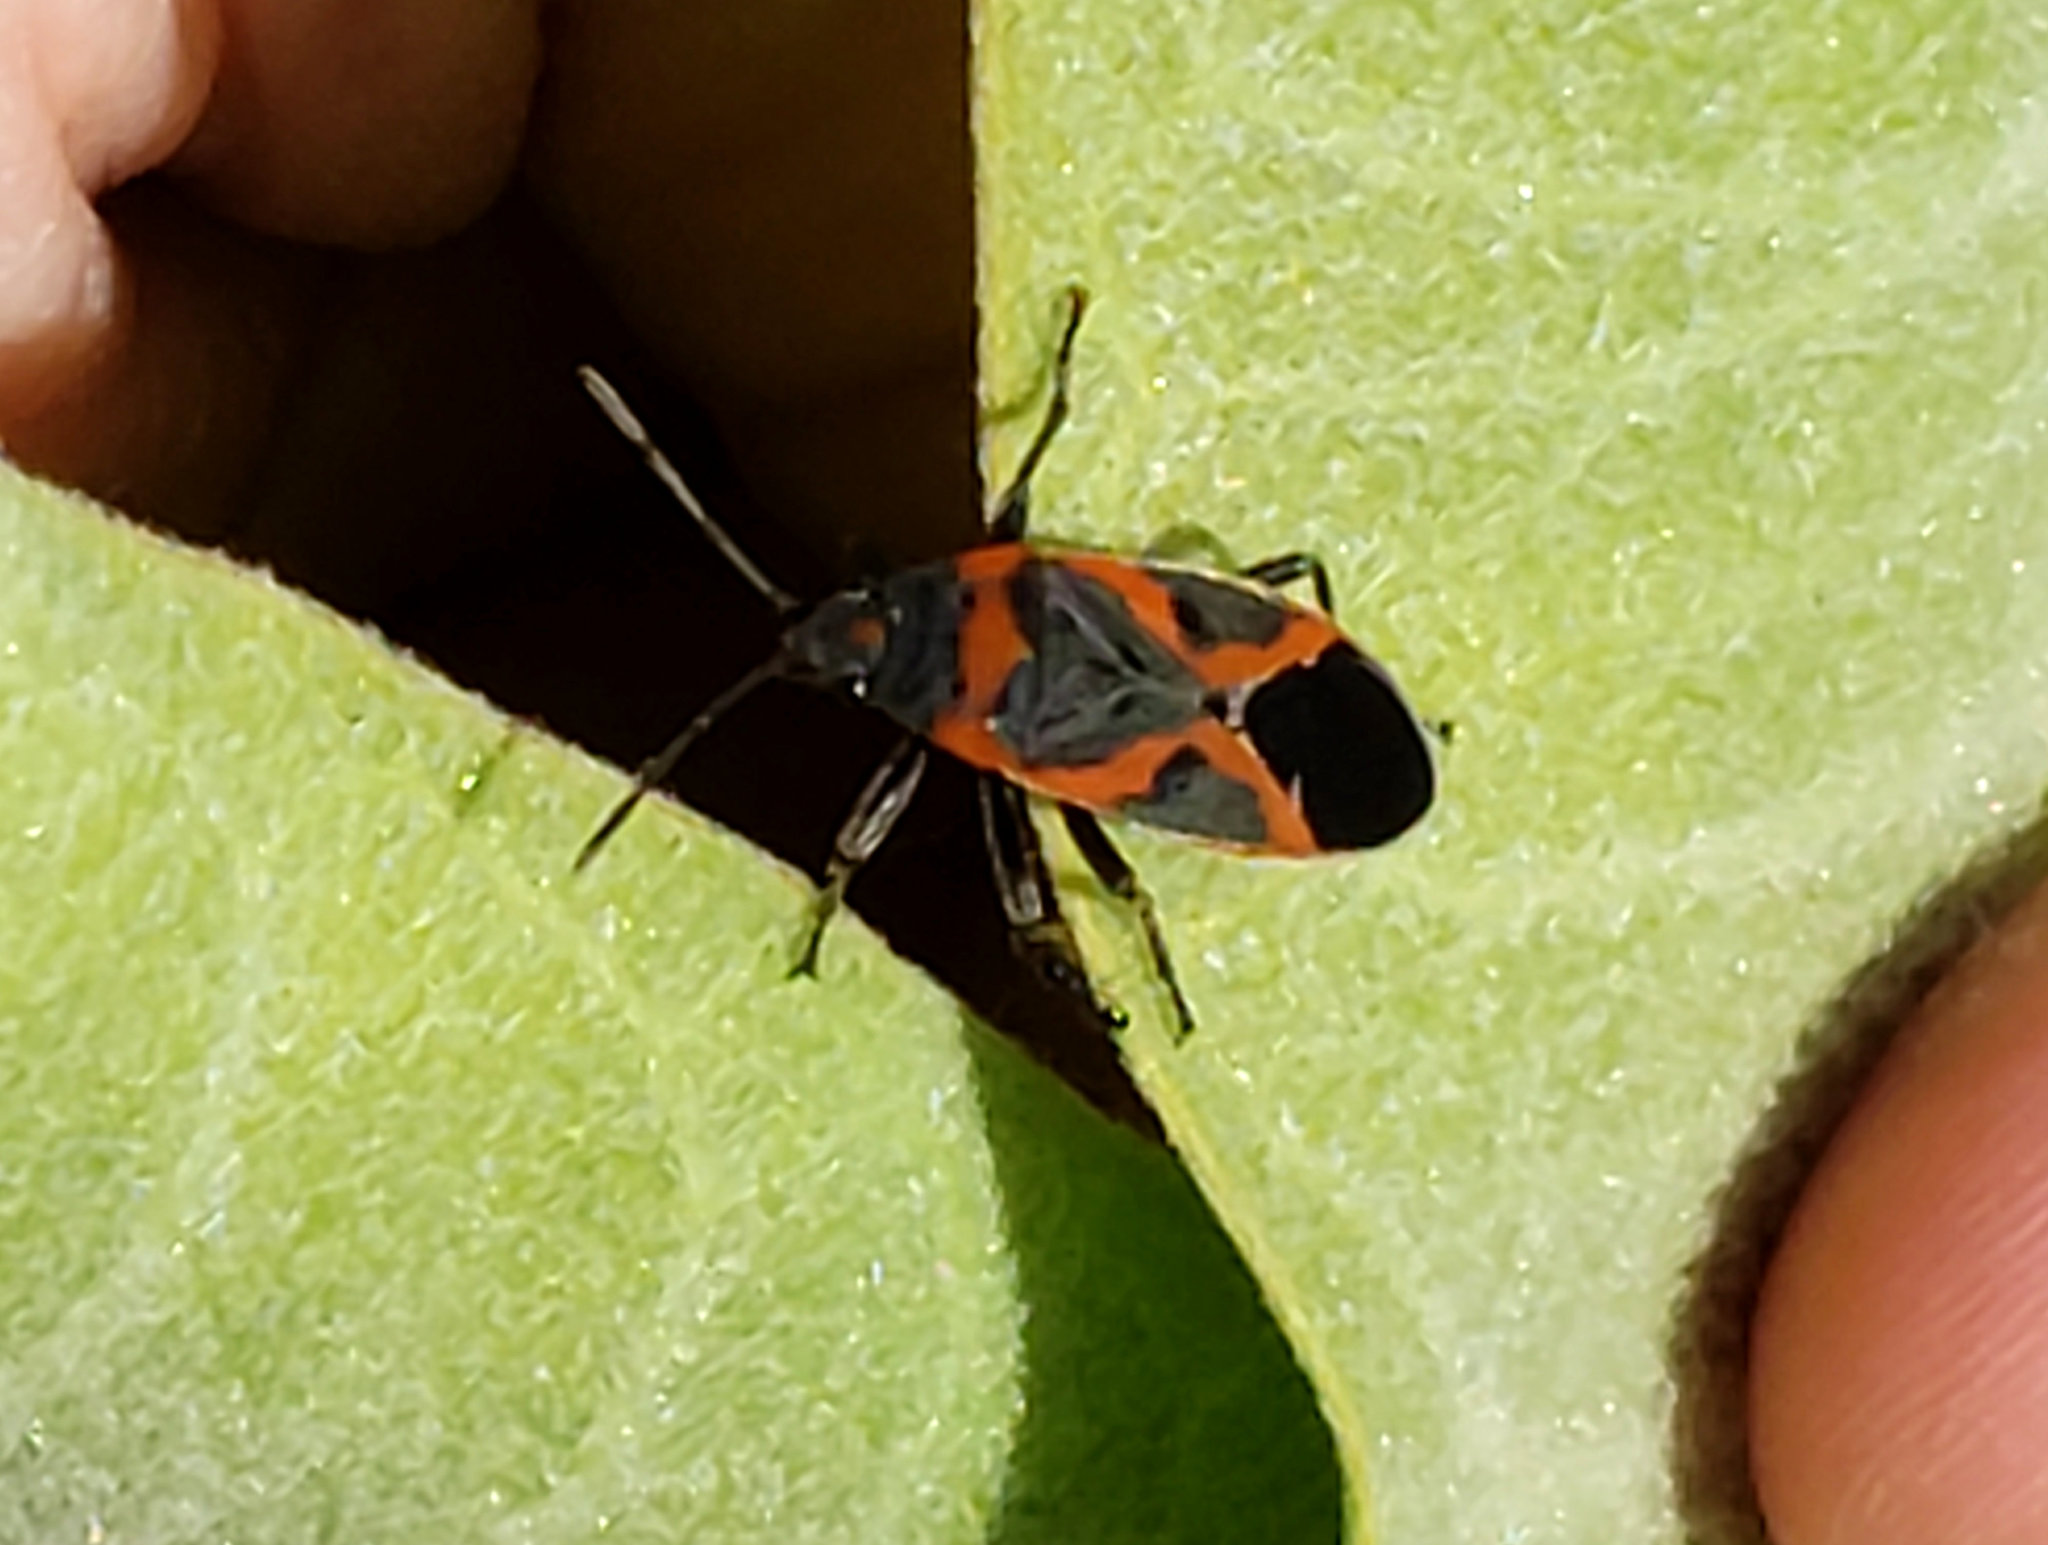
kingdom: Animalia
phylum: Arthropoda
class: Insecta
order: Hemiptera
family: Lygaeidae
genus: Lygaeus
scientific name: Lygaeus kalmii
